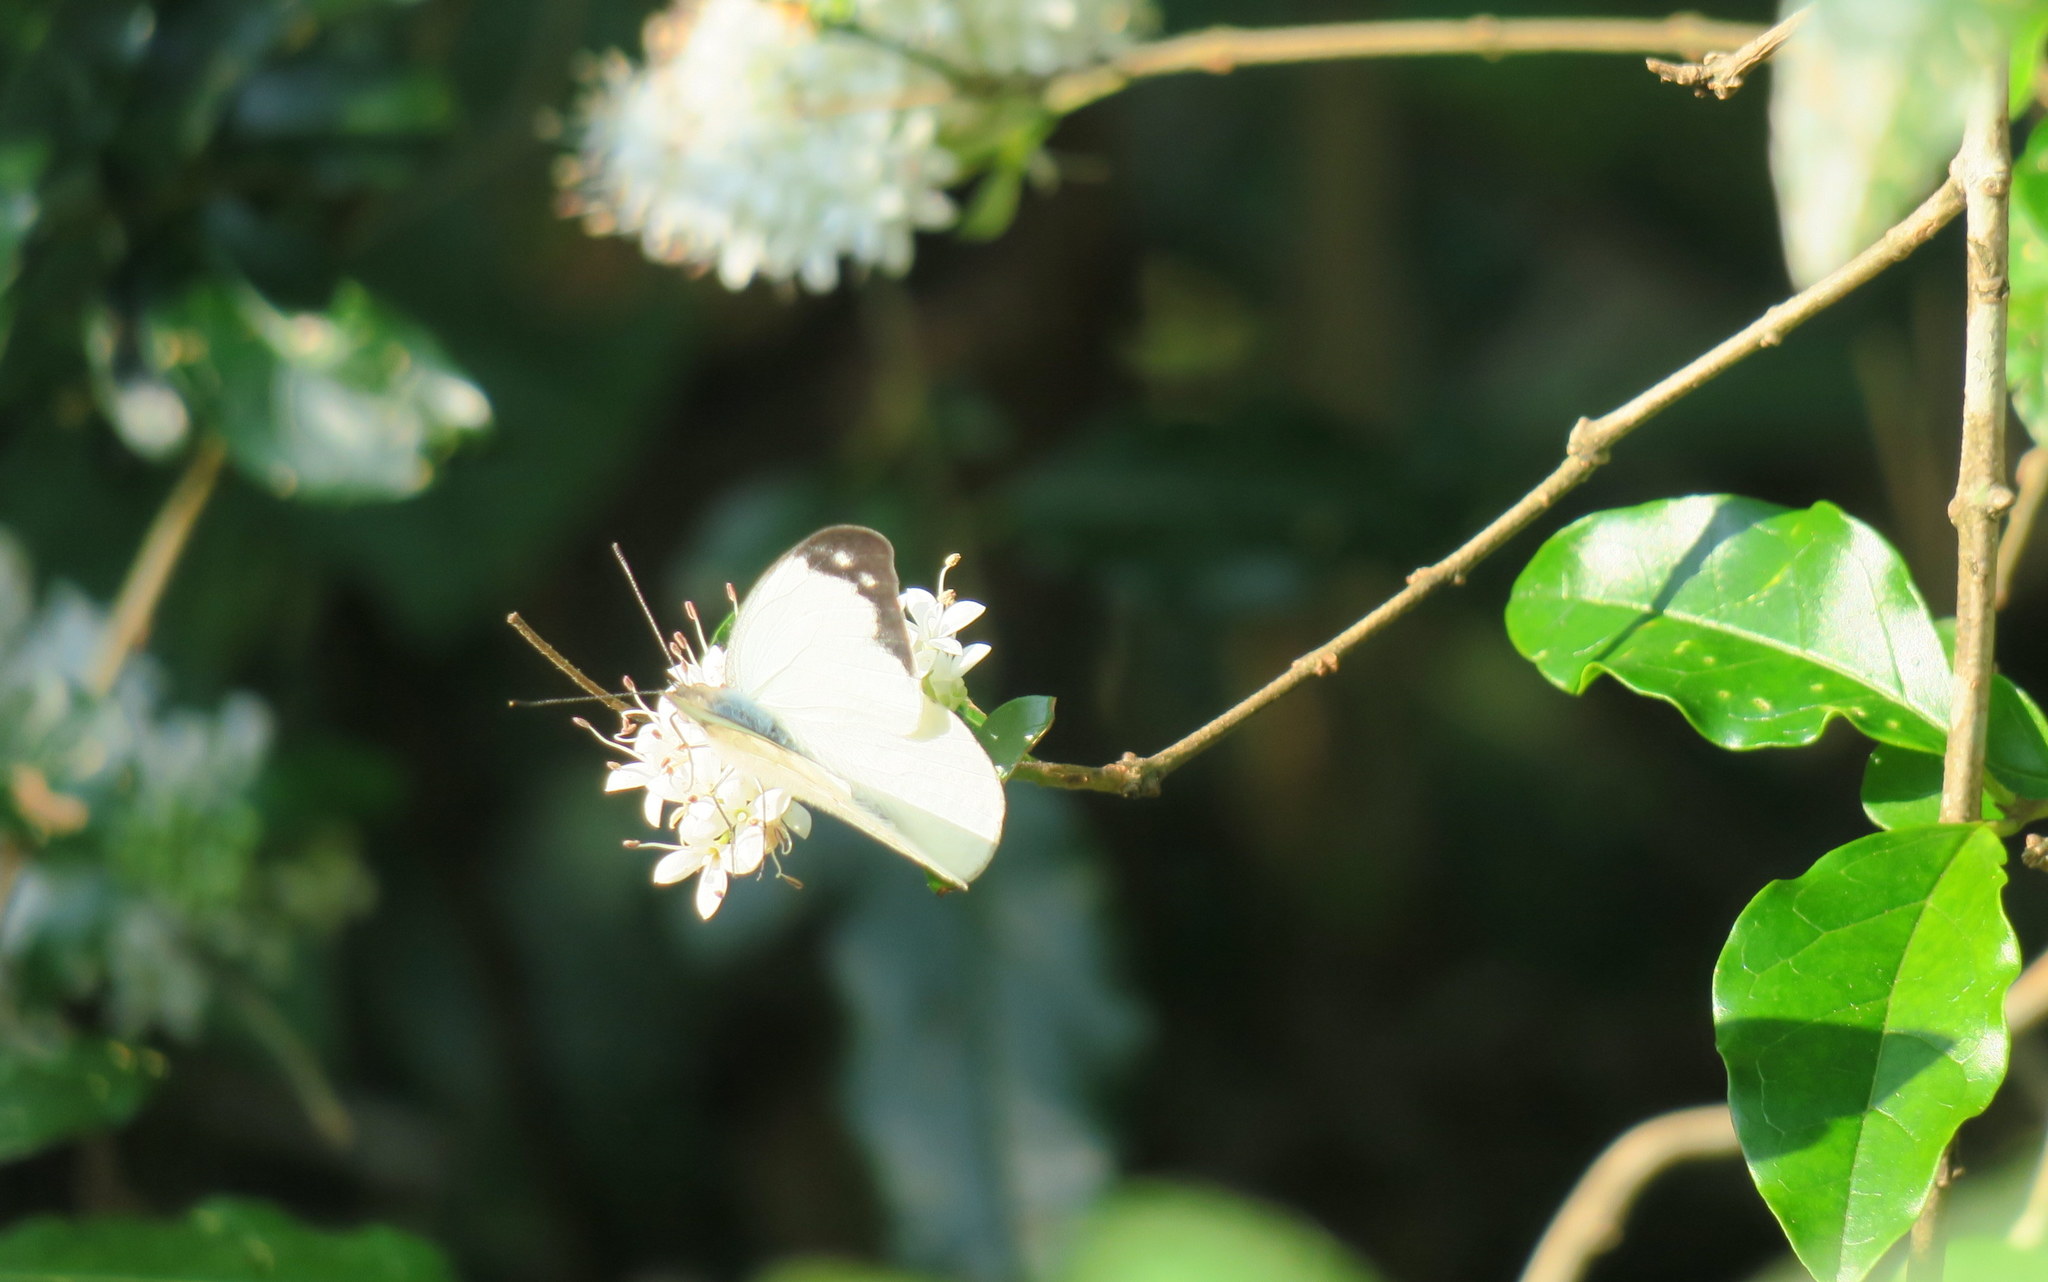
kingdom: Animalia
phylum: Arthropoda
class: Insecta
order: Lepidoptera
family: Pieridae
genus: Appias
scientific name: Appias indra
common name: Plain puffin
